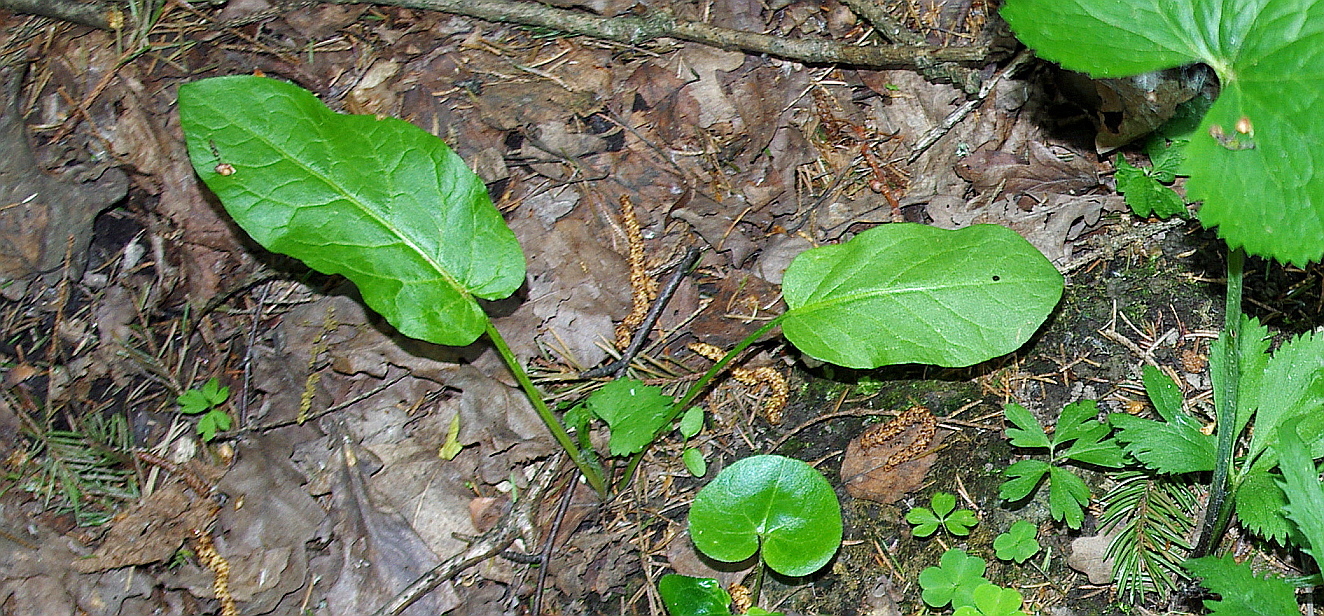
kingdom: Plantae
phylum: Tracheophyta
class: Magnoliopsida
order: Caryophyllales
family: Polygonaceae
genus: Rumex
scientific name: Rumex obtusifolius
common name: Bitter dock
